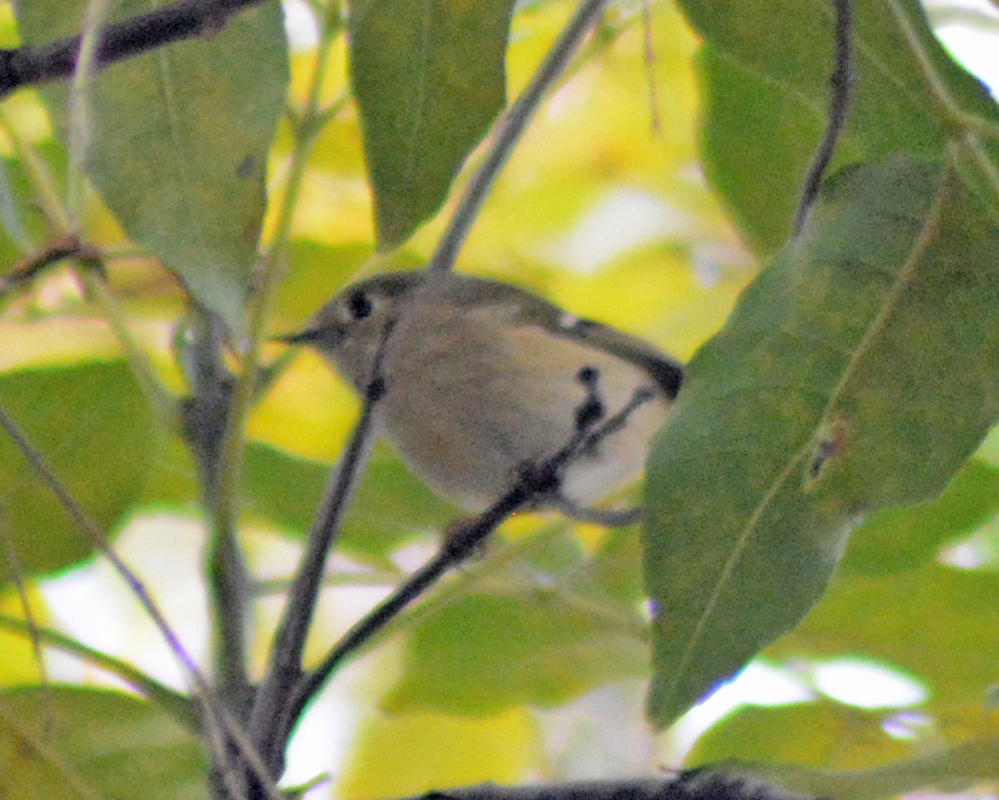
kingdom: Animalia
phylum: Chordata
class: Aves
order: Passeriformes
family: Regulidae
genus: Regulus
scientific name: Regulus calendula
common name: Ruby-crowned kinglet
